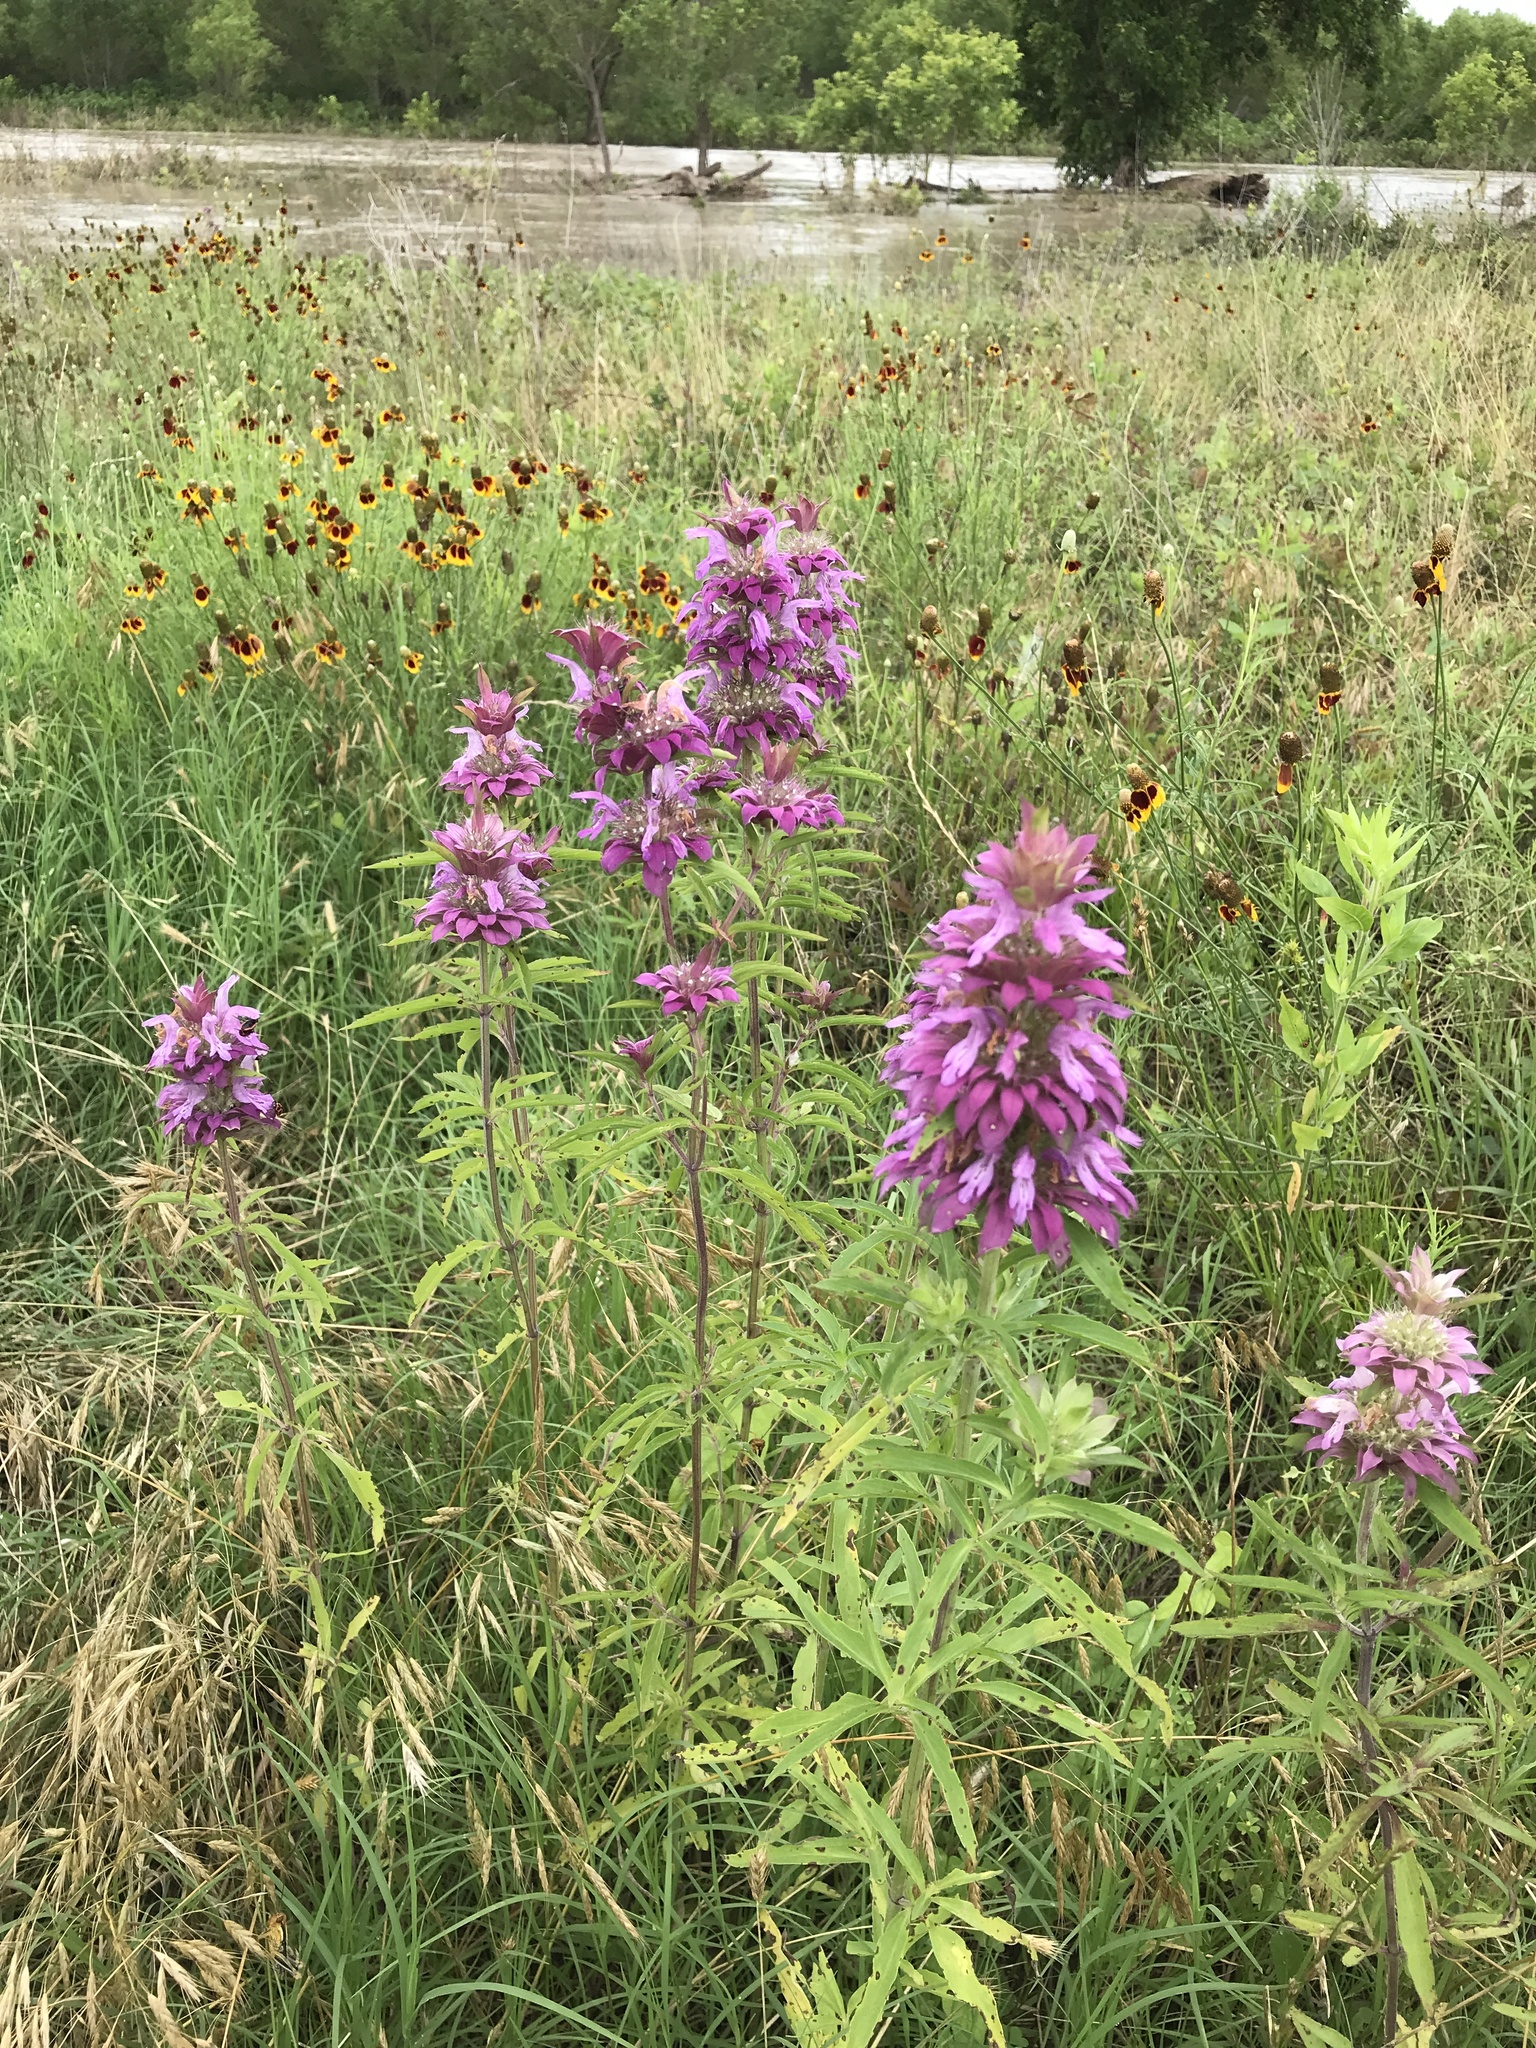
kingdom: Plantae
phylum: Tracheophyta
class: Magnoliopsida
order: Lamiales
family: Lamiaceae
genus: Monarda
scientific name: Monarda citriodora
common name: Lemon beebalm
